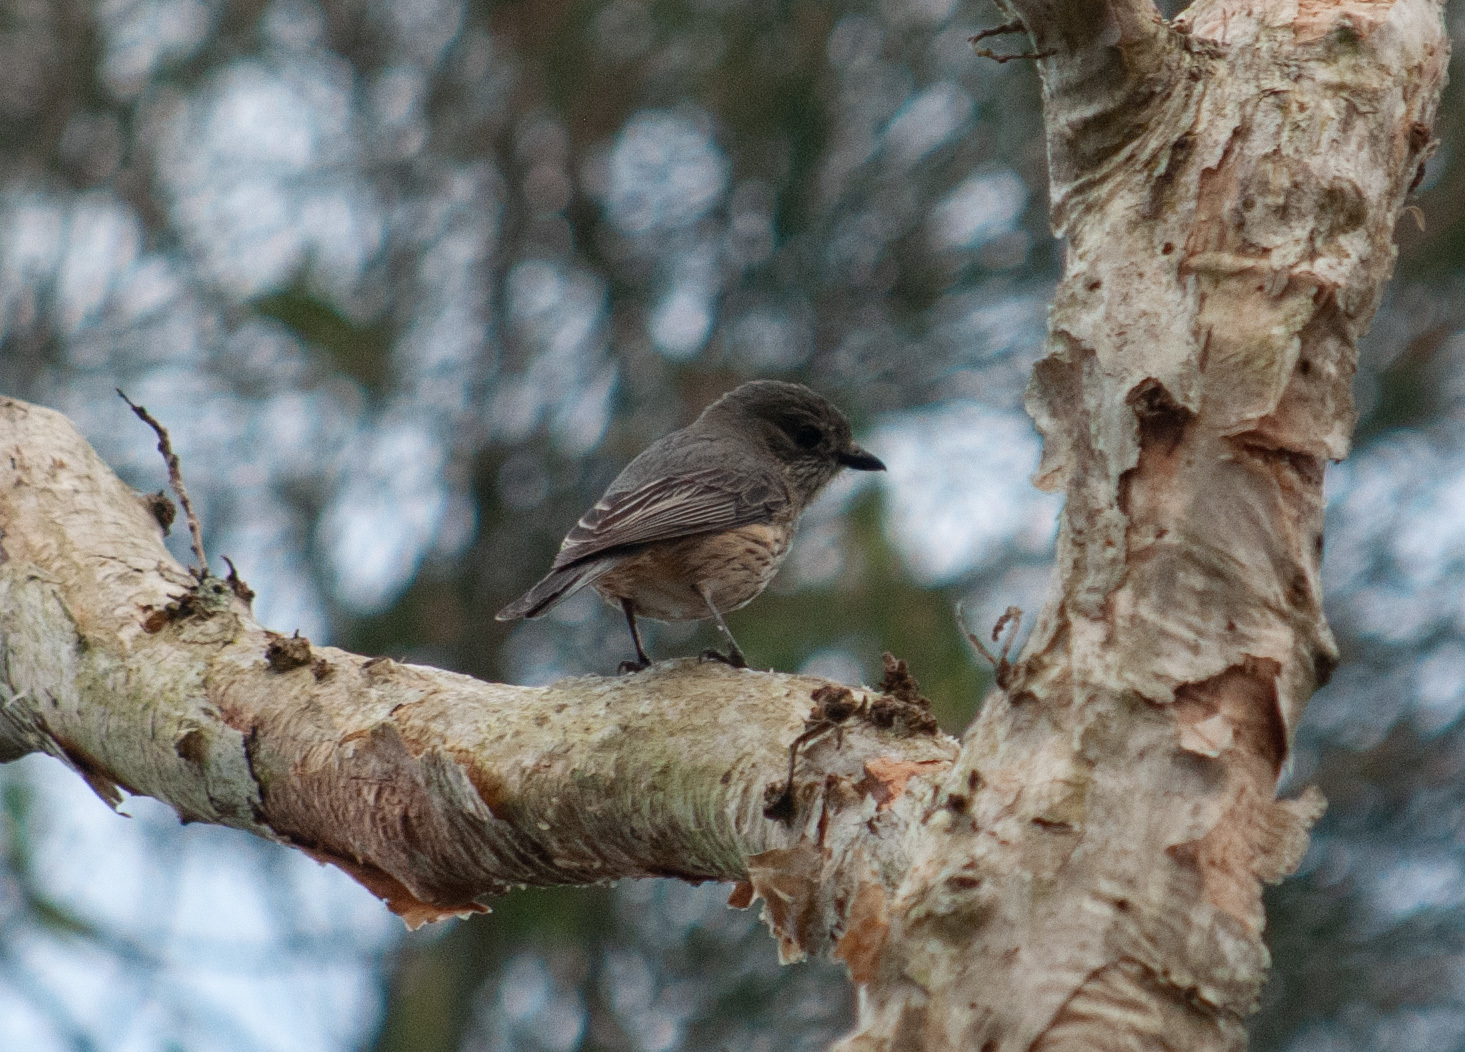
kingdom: Animalia
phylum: Chordata
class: Aves
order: Passeriformes
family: Pachycephalidae
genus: Pachycephala
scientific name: Pachycephala rufiventris
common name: Rufous whistler
